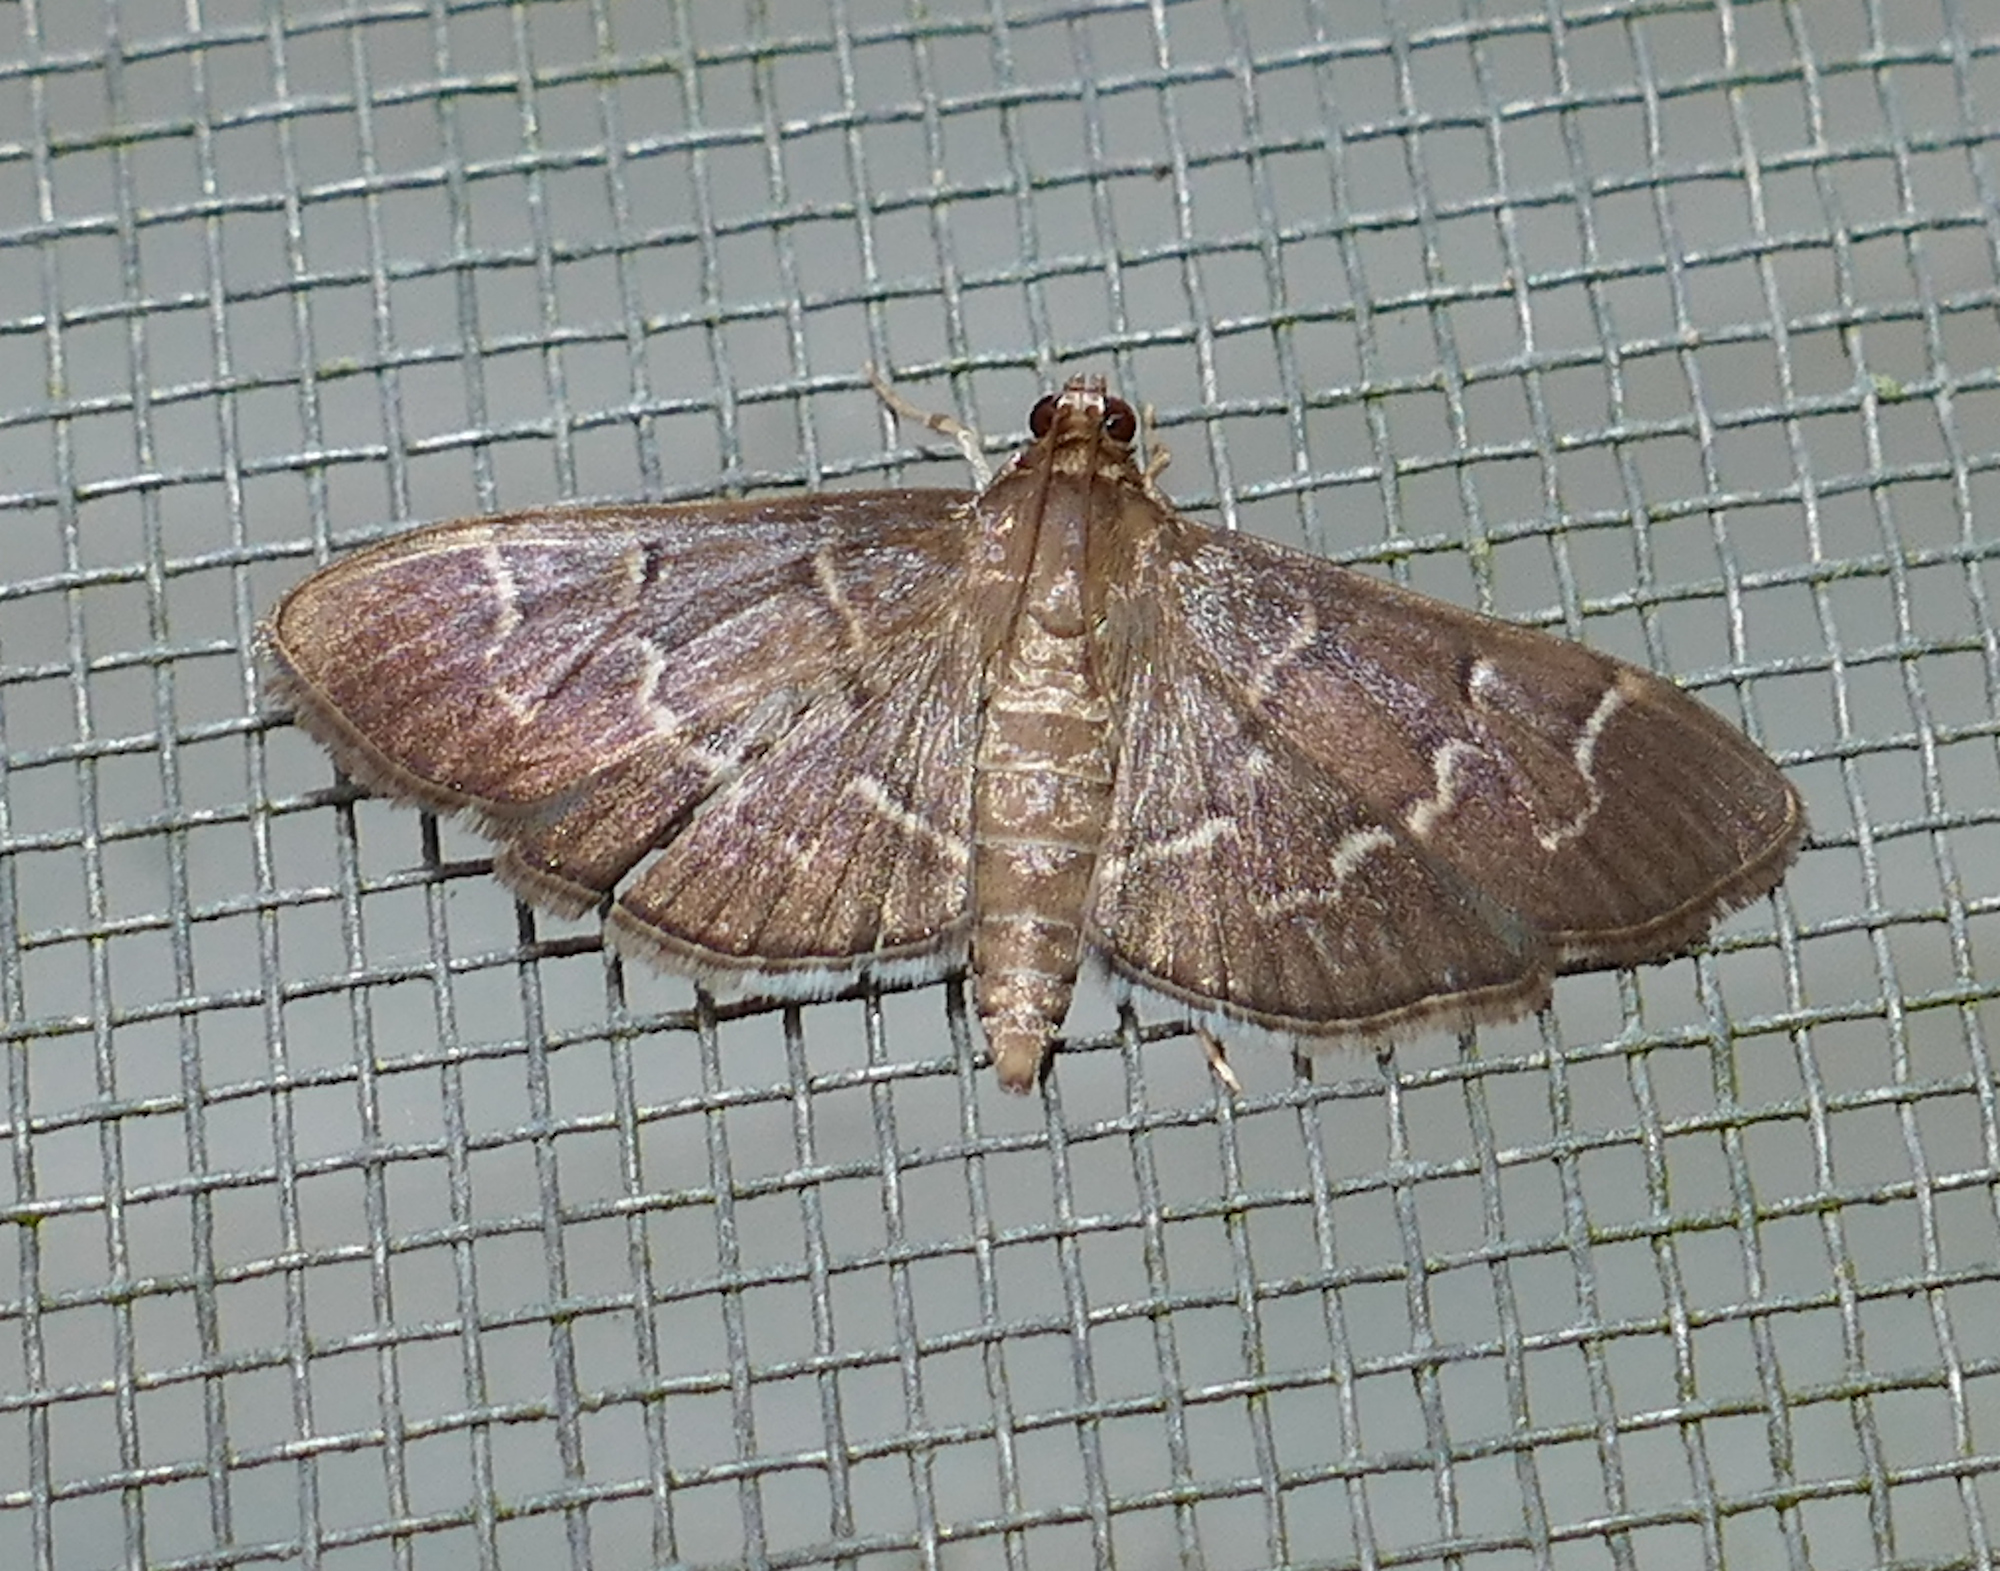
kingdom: Animalia
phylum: Arthropoda
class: Insecta
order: Lepidoptera
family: Crambidae
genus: Pilocrocis
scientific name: Pilocrocis ramentalis
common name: Scraped pilocrocis
